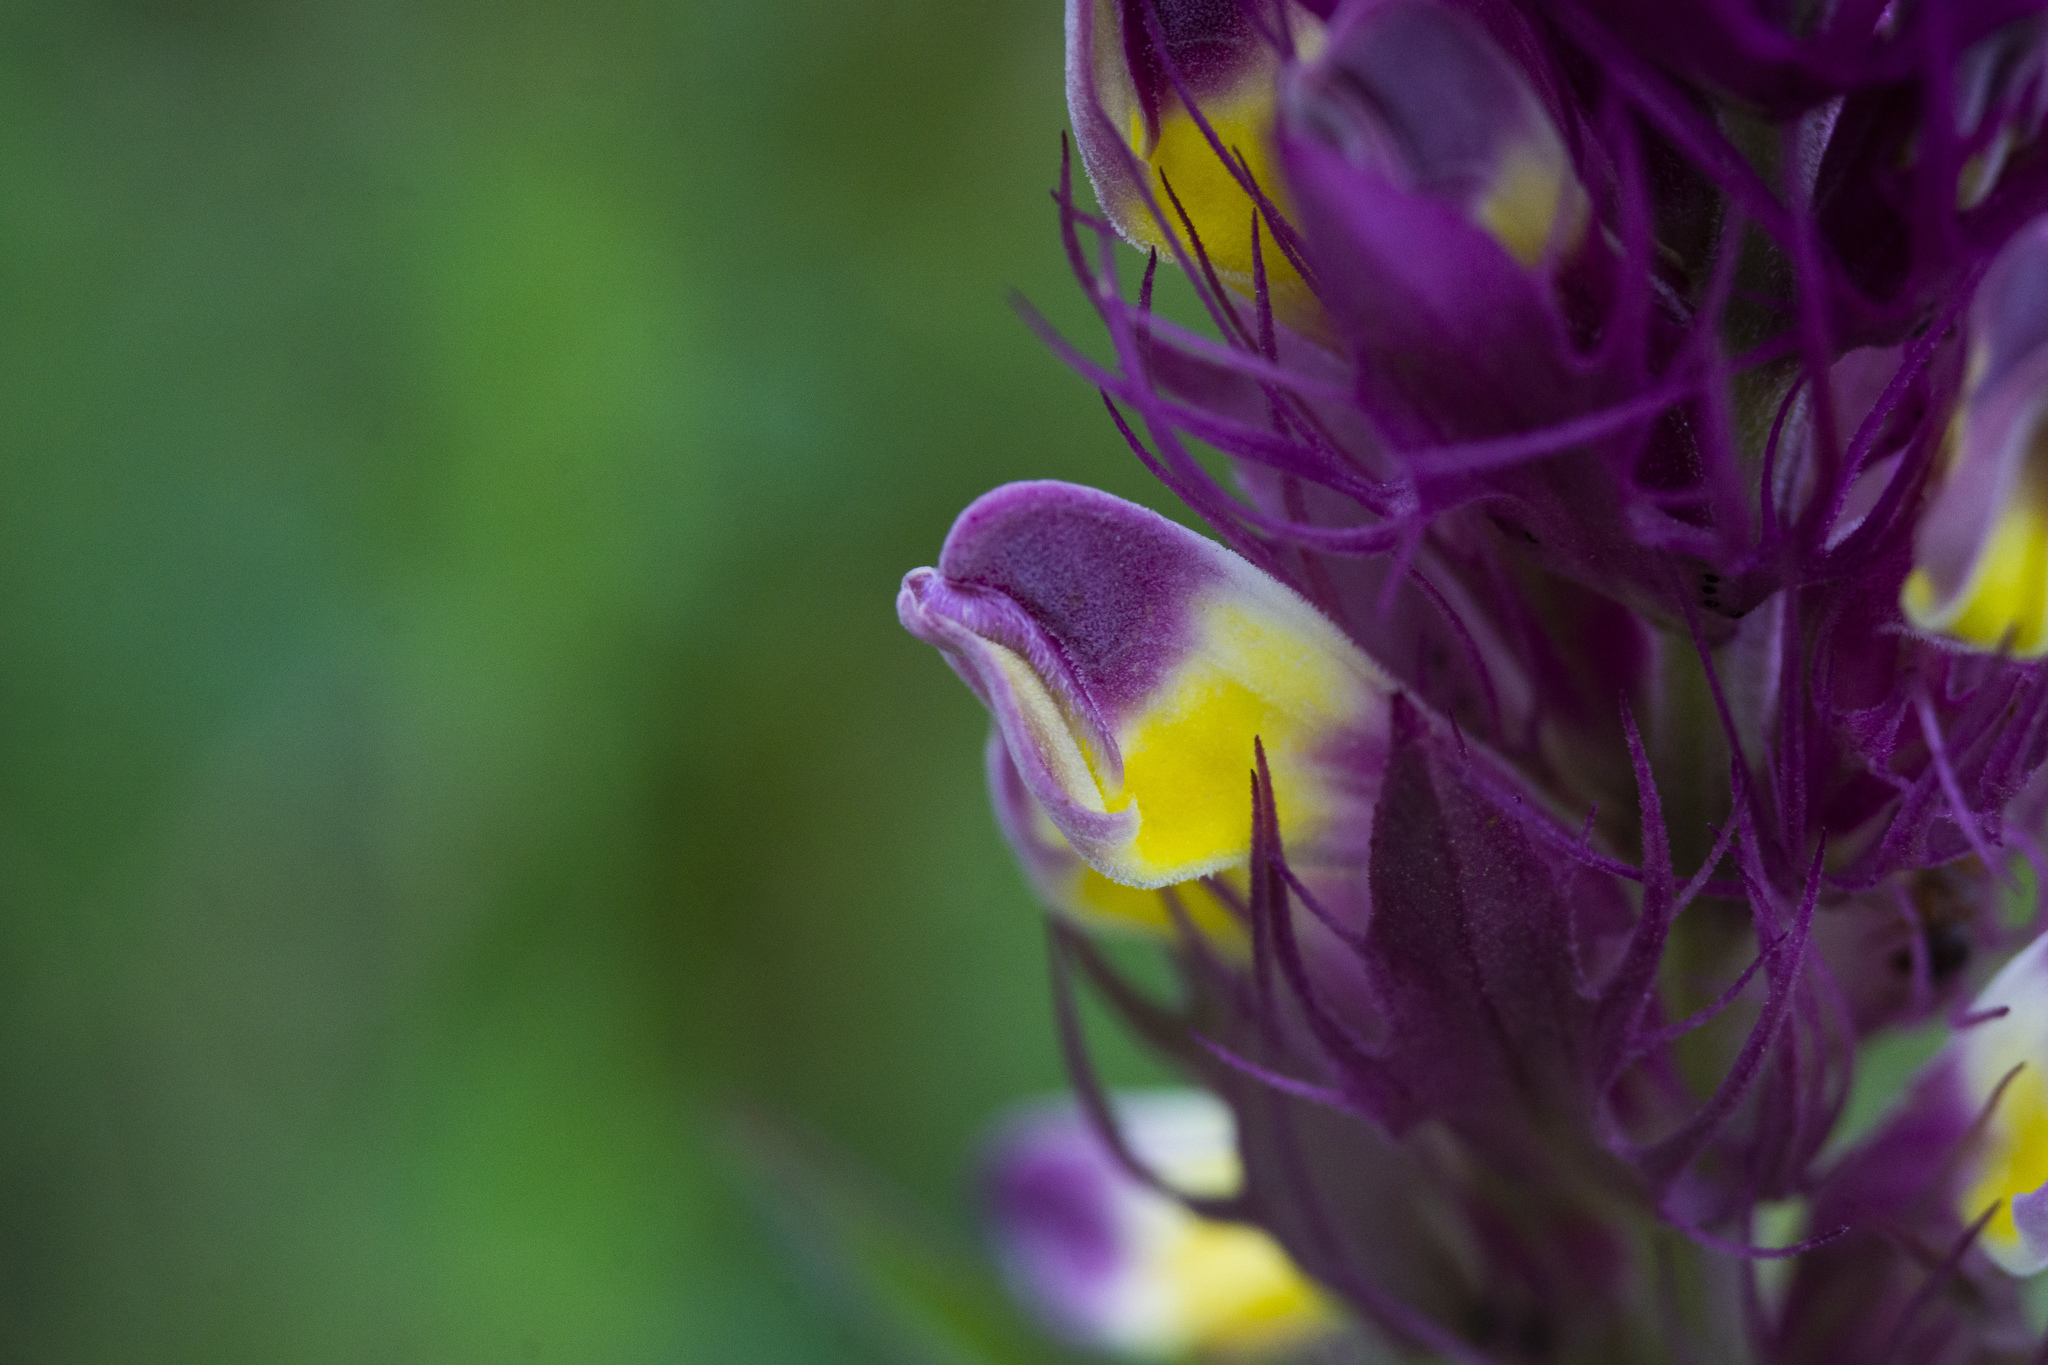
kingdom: Plantae
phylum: Tracheophyta
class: Magnoliopsida
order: Lamiales
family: Orobanchaceae
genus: Melampyrum
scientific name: Melampyrum arvense
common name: Field cow-wheat
